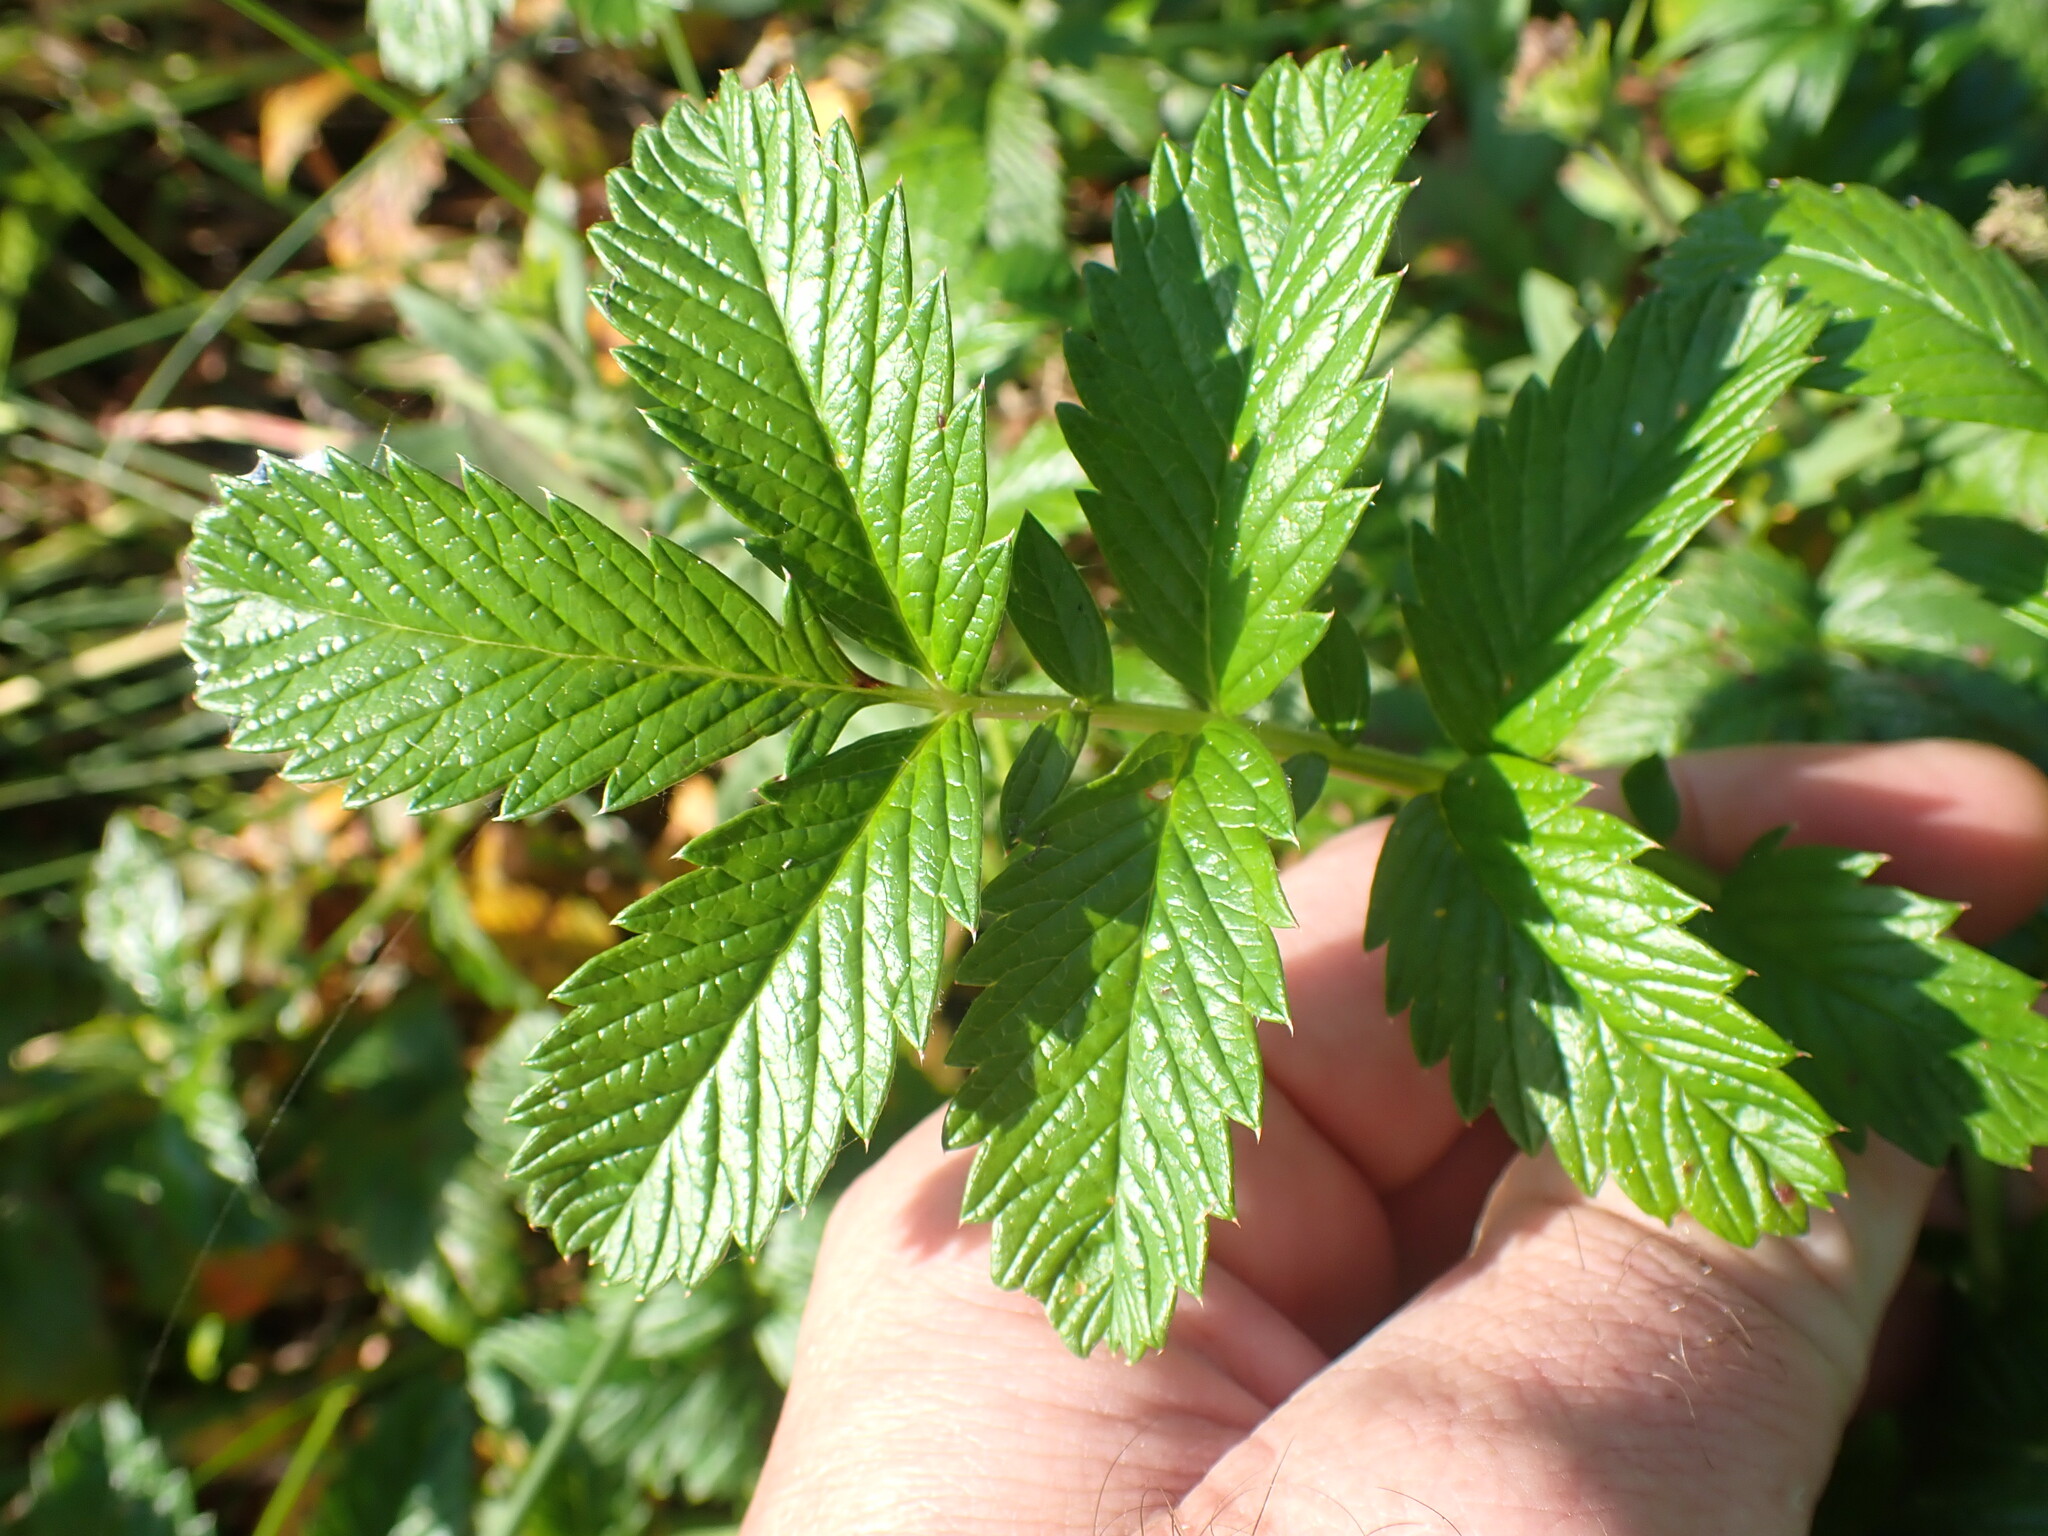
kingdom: Plantae
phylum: Tracheophyta
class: Magnoliopsida
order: Rosales
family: Rosaceae
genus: Argentina
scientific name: Argentina anserina
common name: Common silverweed
